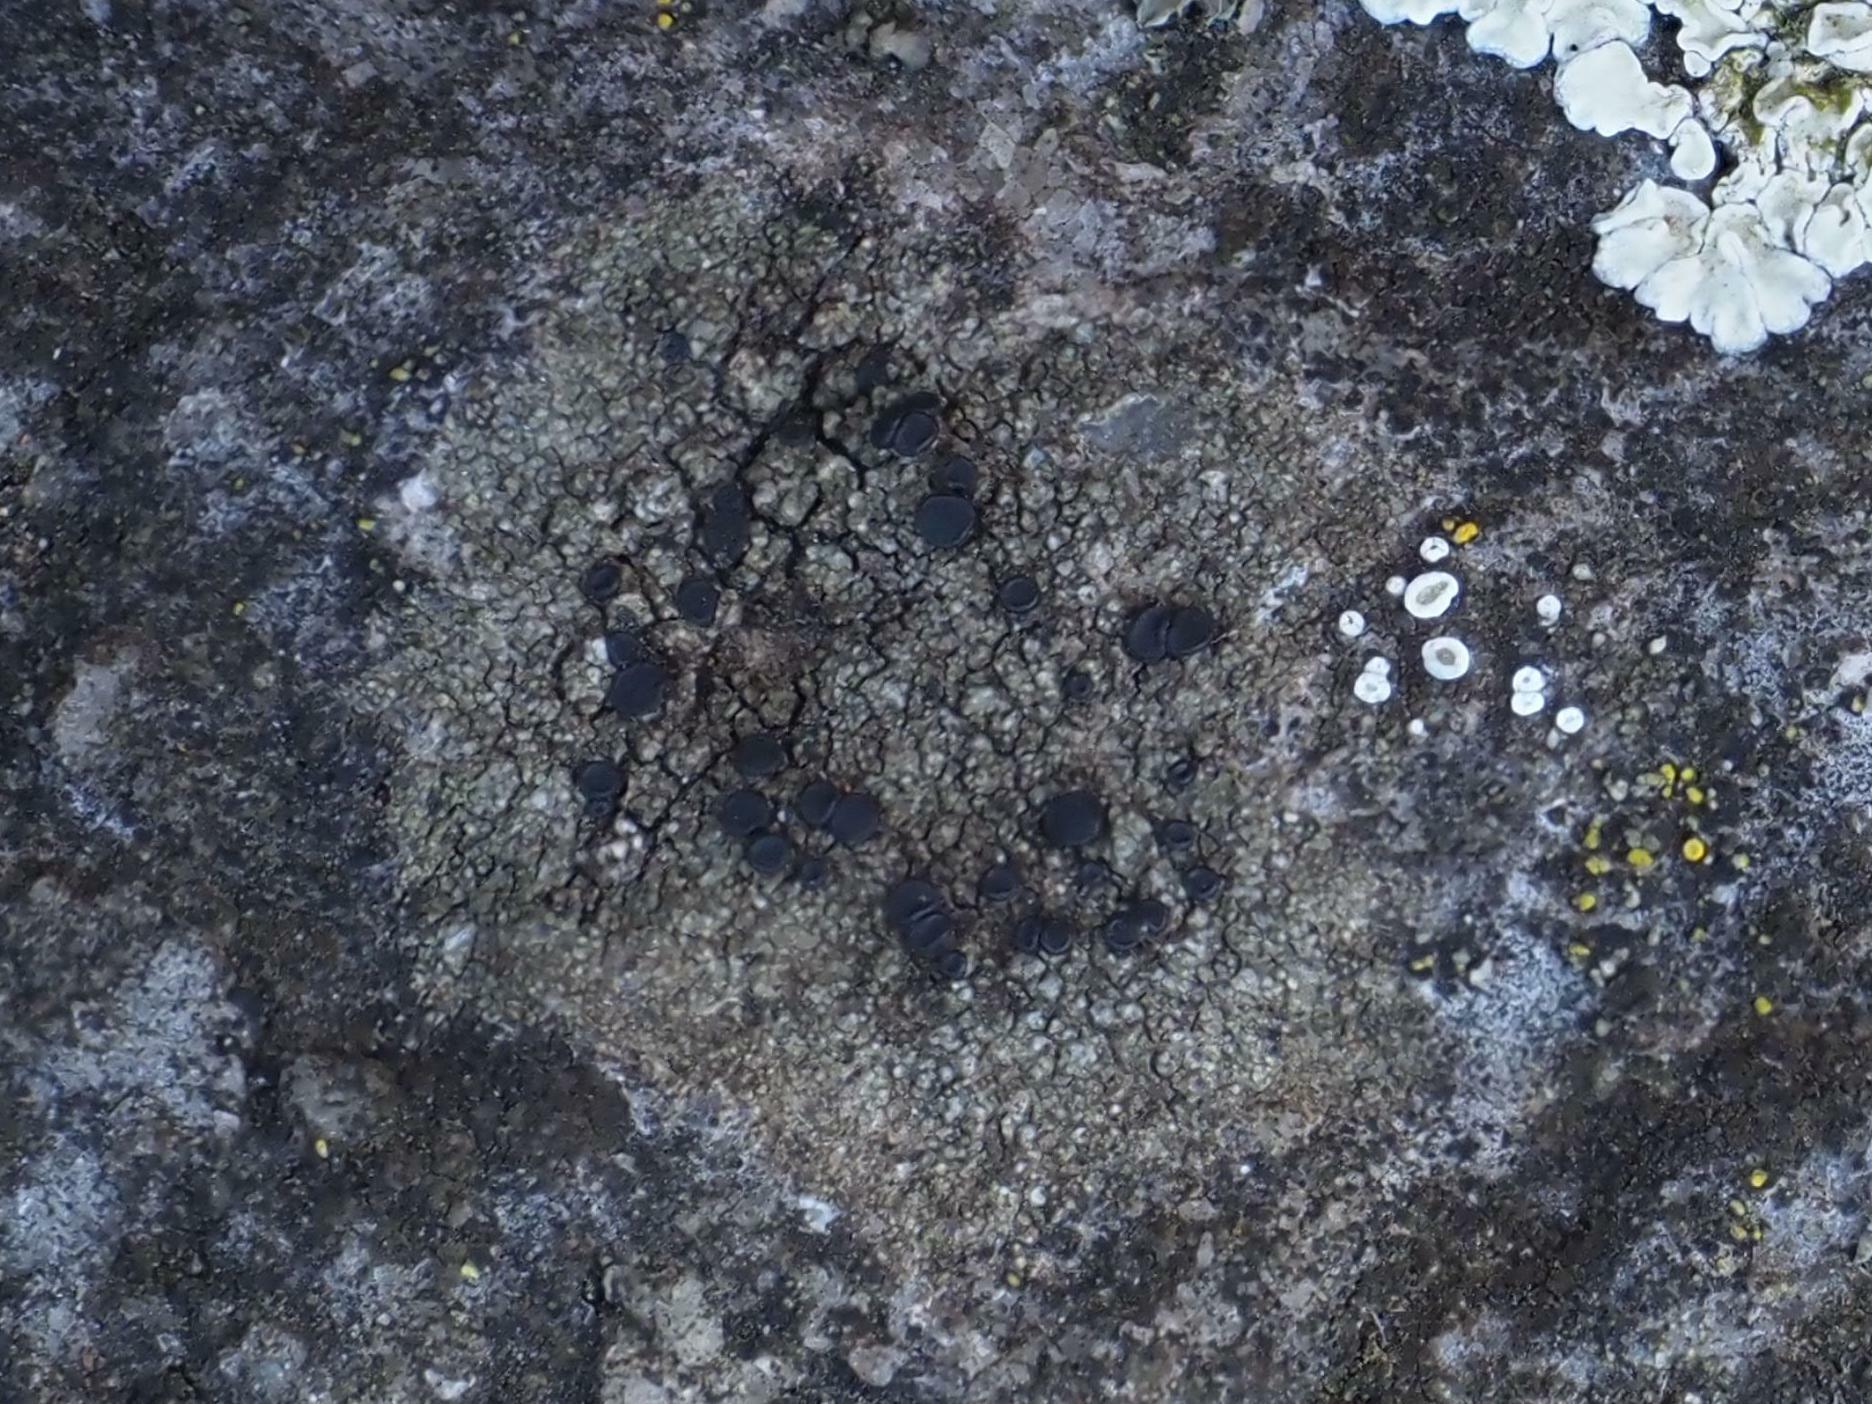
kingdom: Fungi
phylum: Ascomycota
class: Lecanoromycetes
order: Lecanorales
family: Lecanoraceae
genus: Lecidella
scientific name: Lecidella stigmatea
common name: Limestone disc lichen
